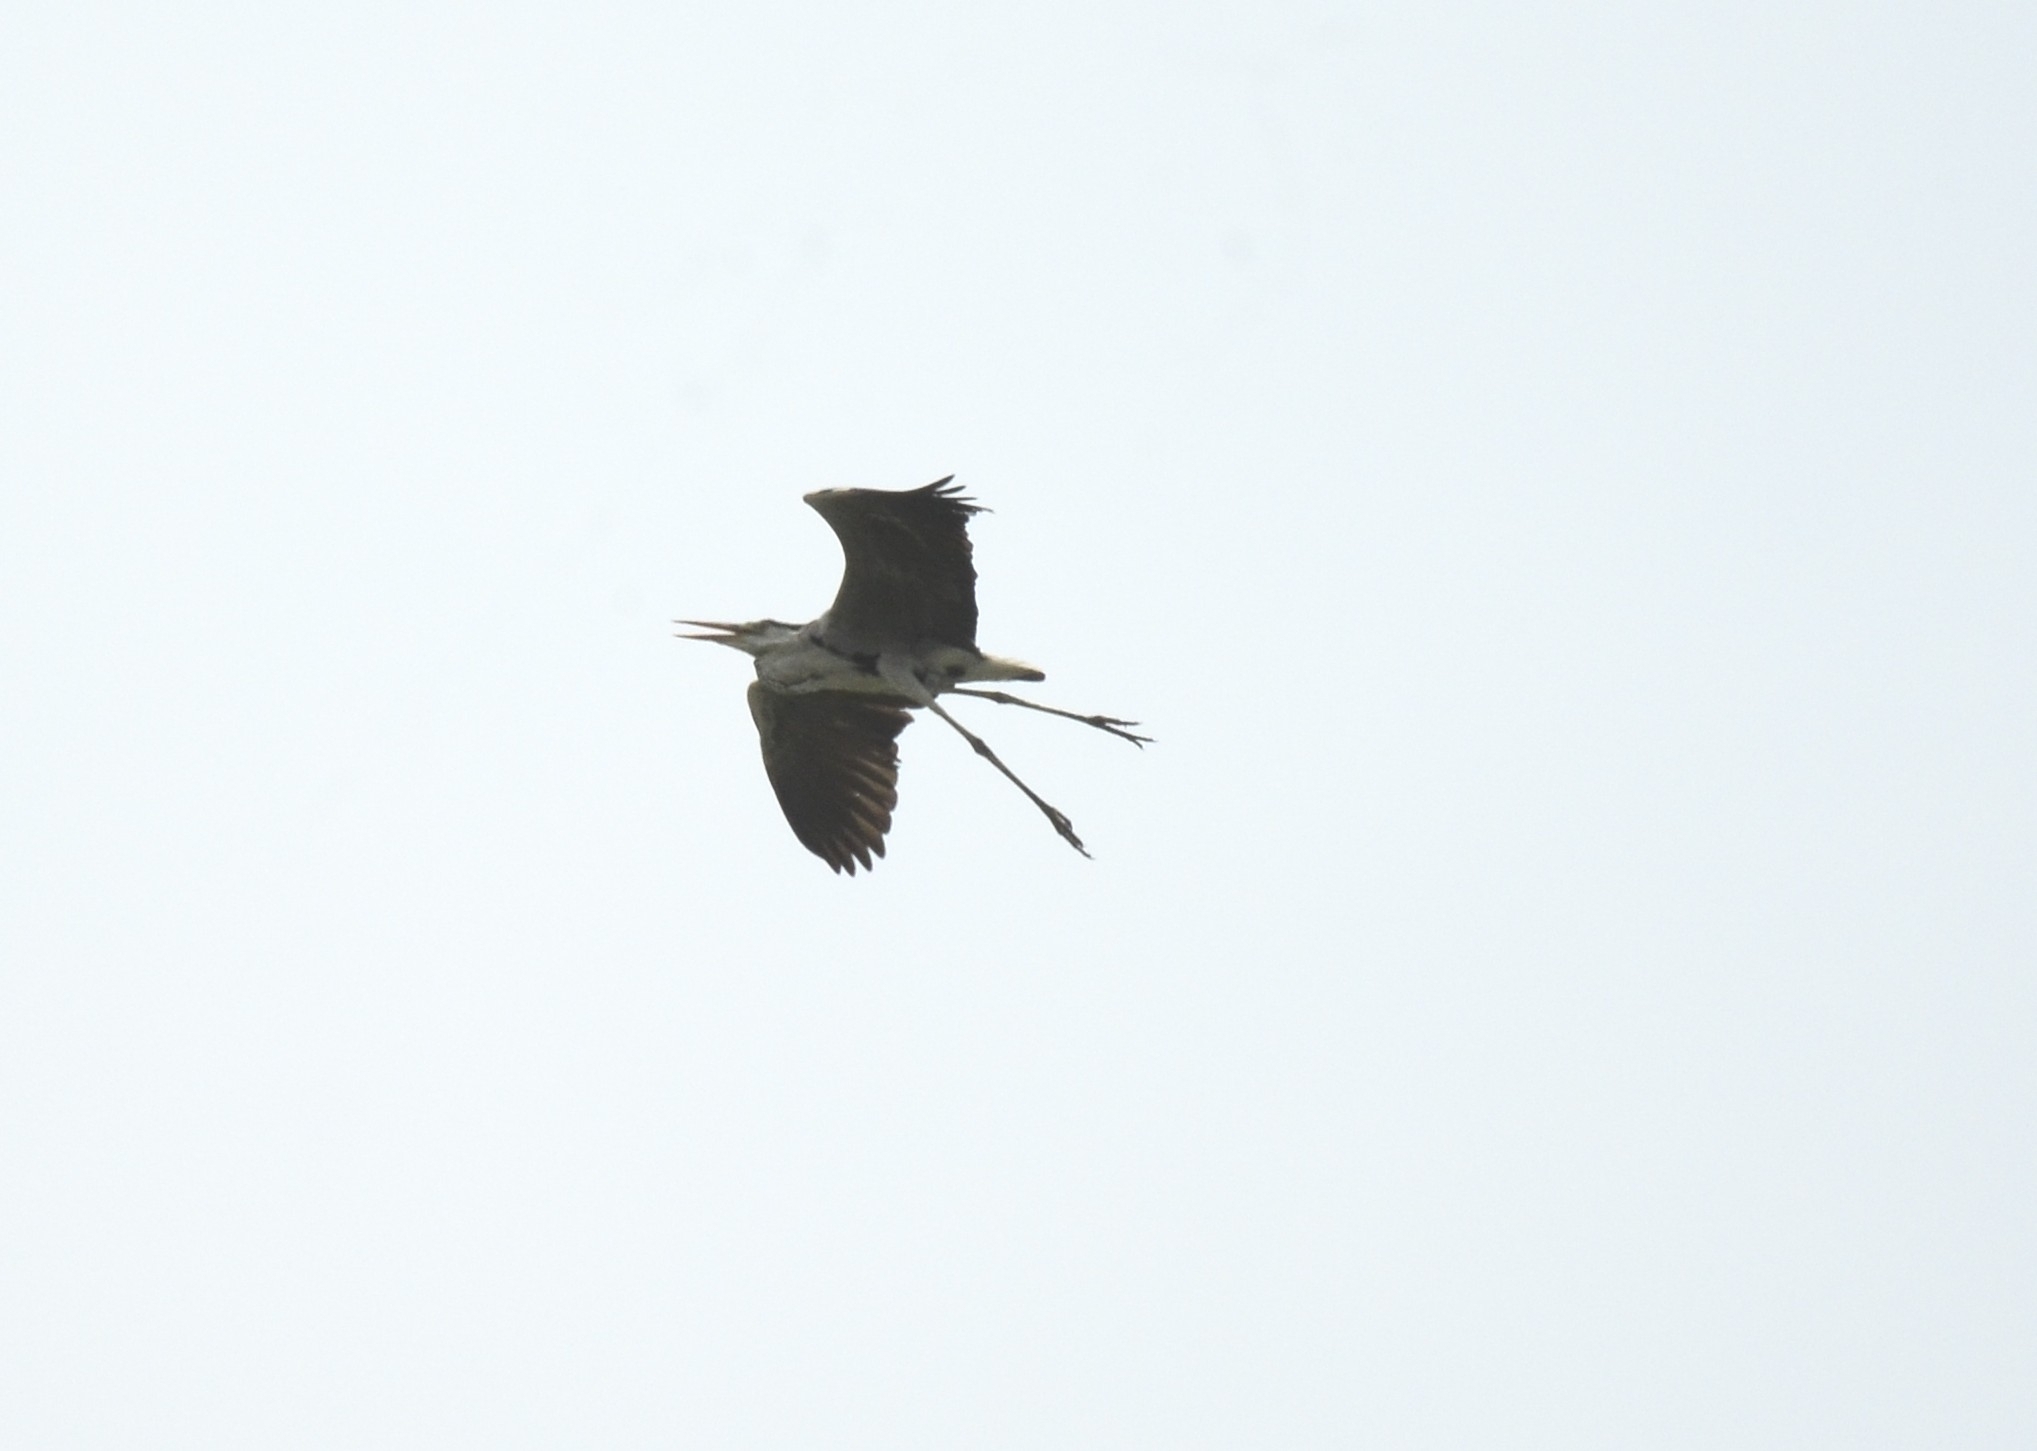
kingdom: Animalia
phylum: Chordata
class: Aves
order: Pelecaniformes
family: Ardeidae
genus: Ardea
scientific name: Ardea cinerea
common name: Grey heron
